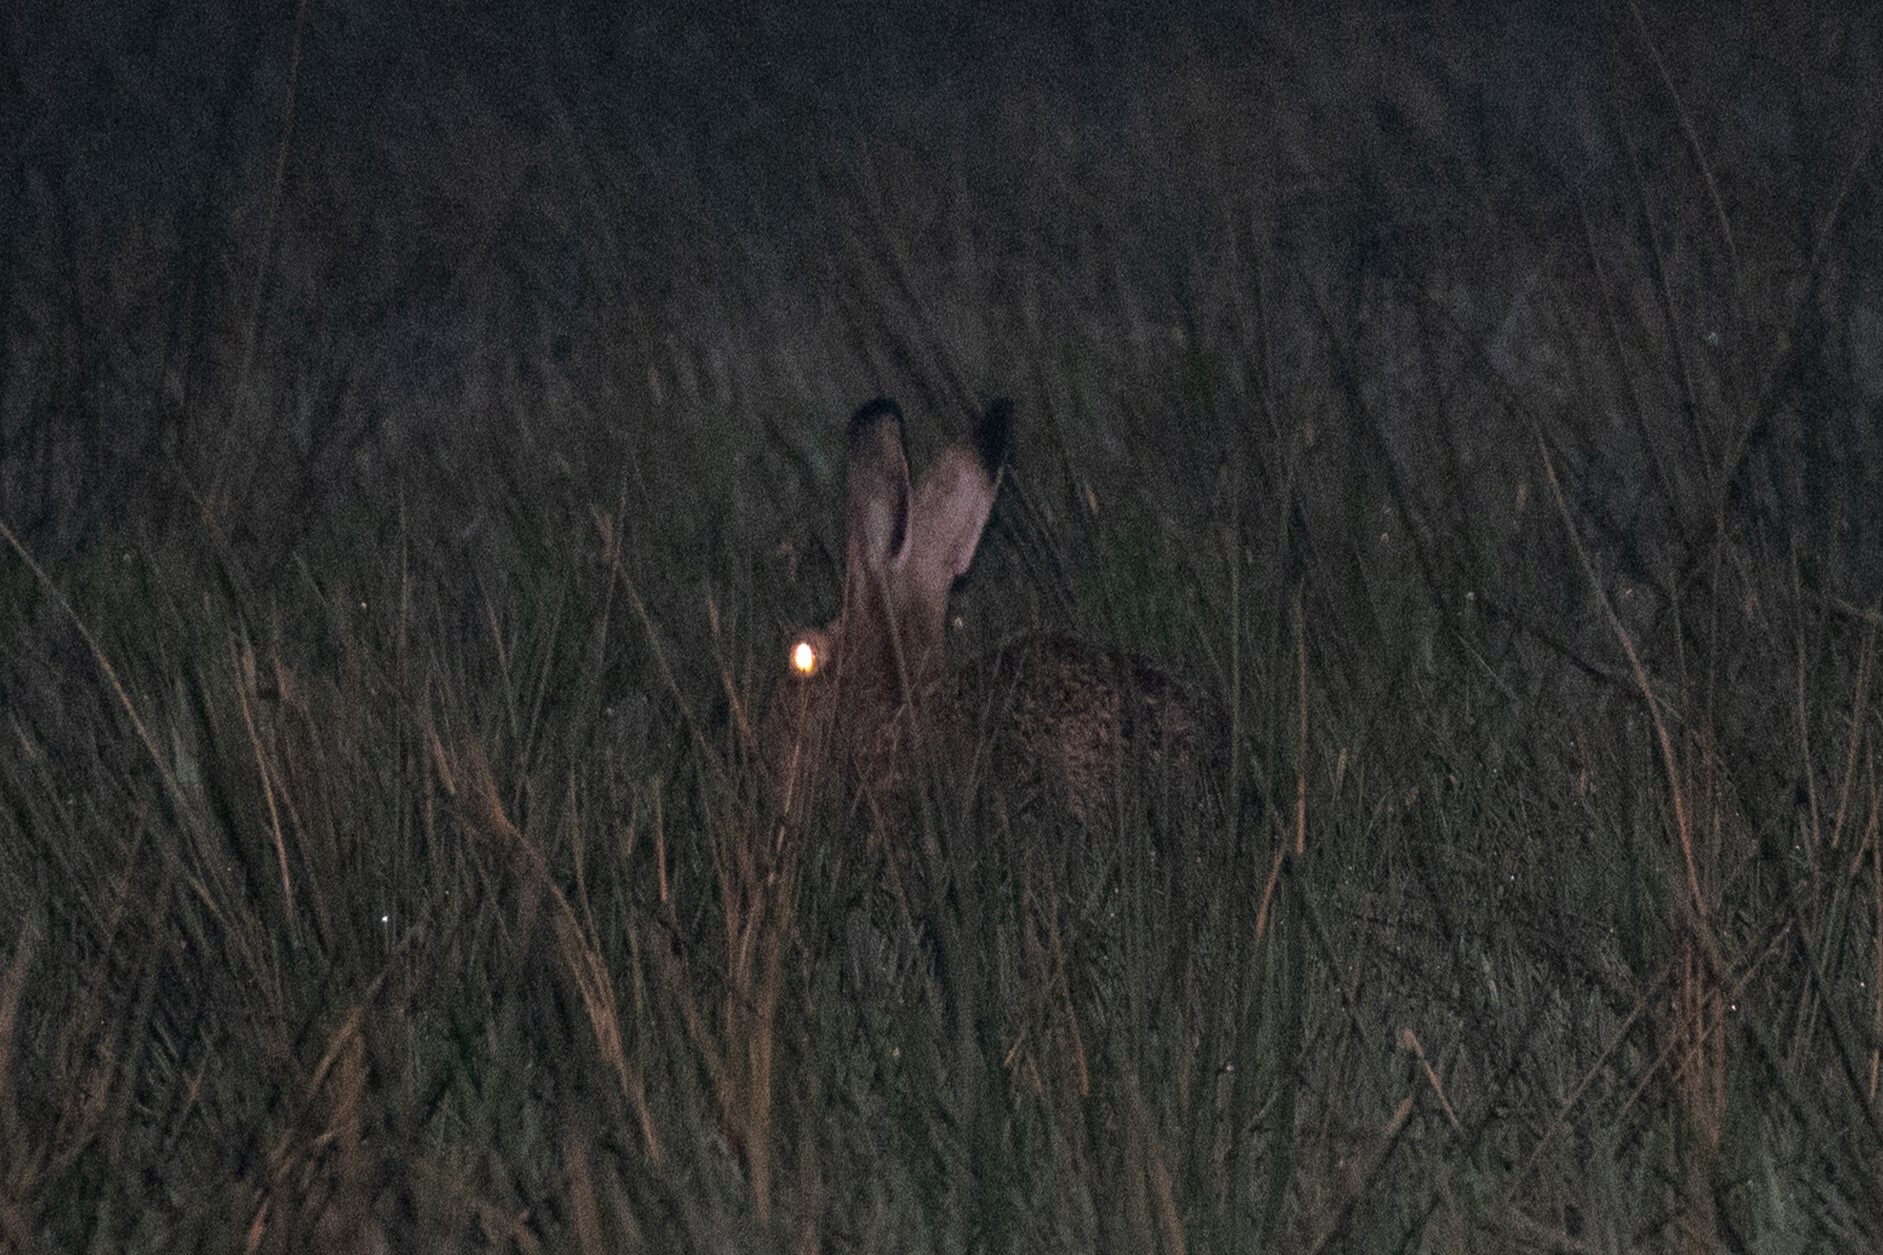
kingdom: Animalia
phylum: Chordata
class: Mammalia
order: Lagomorpha
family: Leporidae
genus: Lepus
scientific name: Lepus europaeus
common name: European hare
